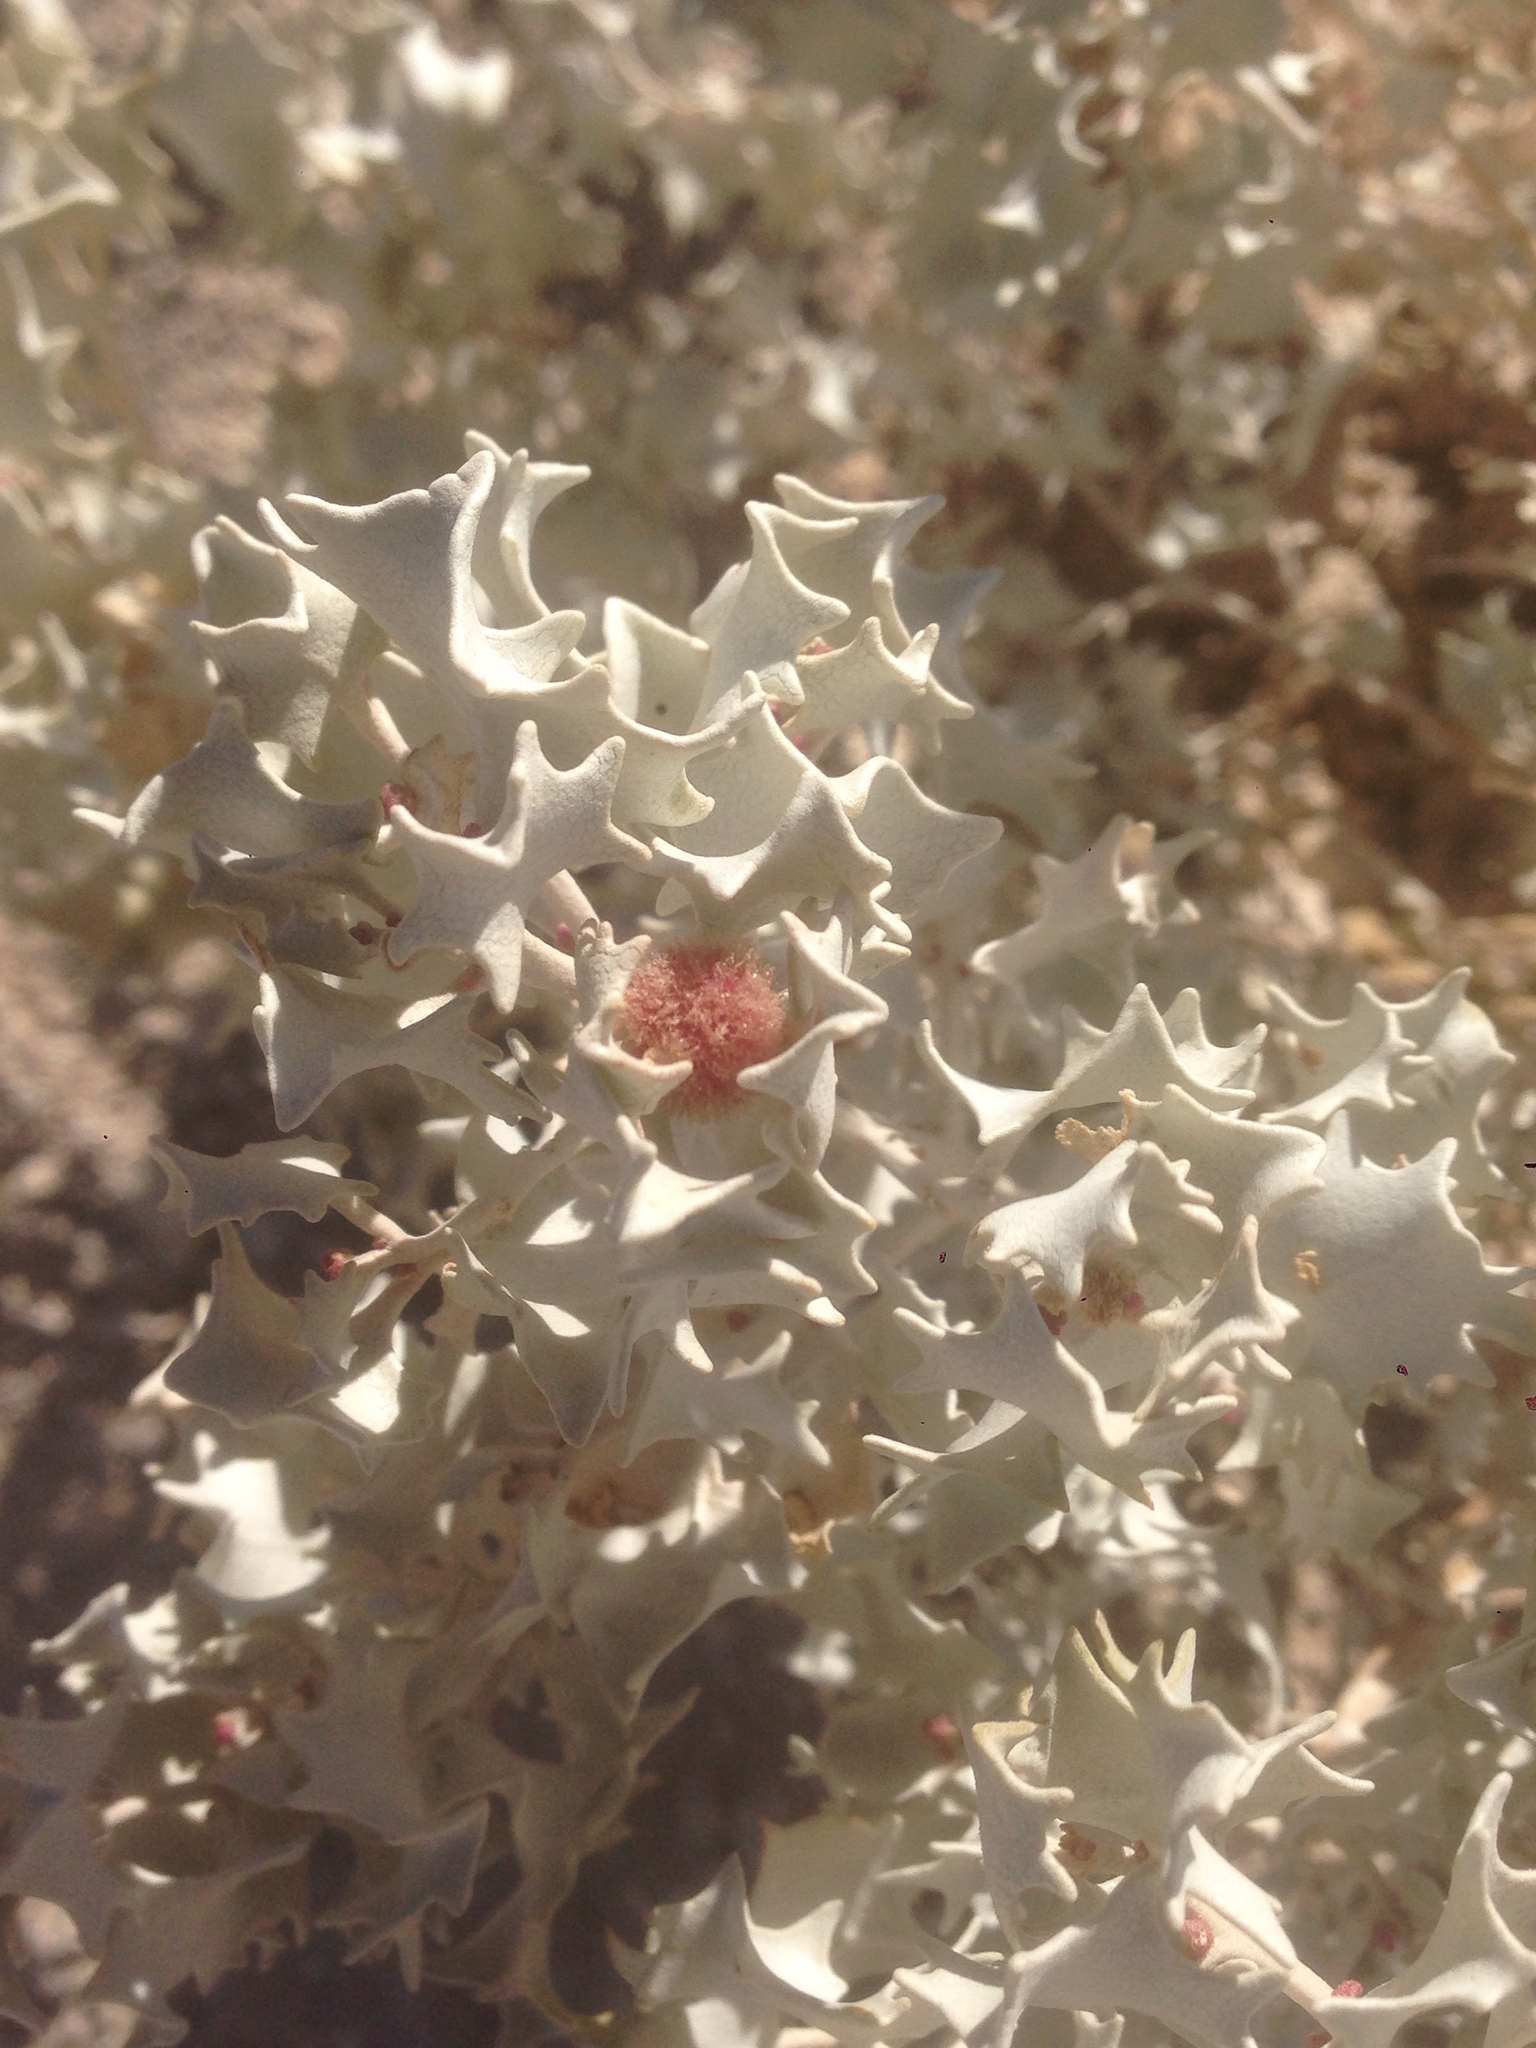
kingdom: Plantae
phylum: Tracheophyta
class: Magnoliopsida
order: Caryophyllales
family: Amaranthaceae
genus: Atriplex
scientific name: Atriplex hymenelytra
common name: Desert-holly
